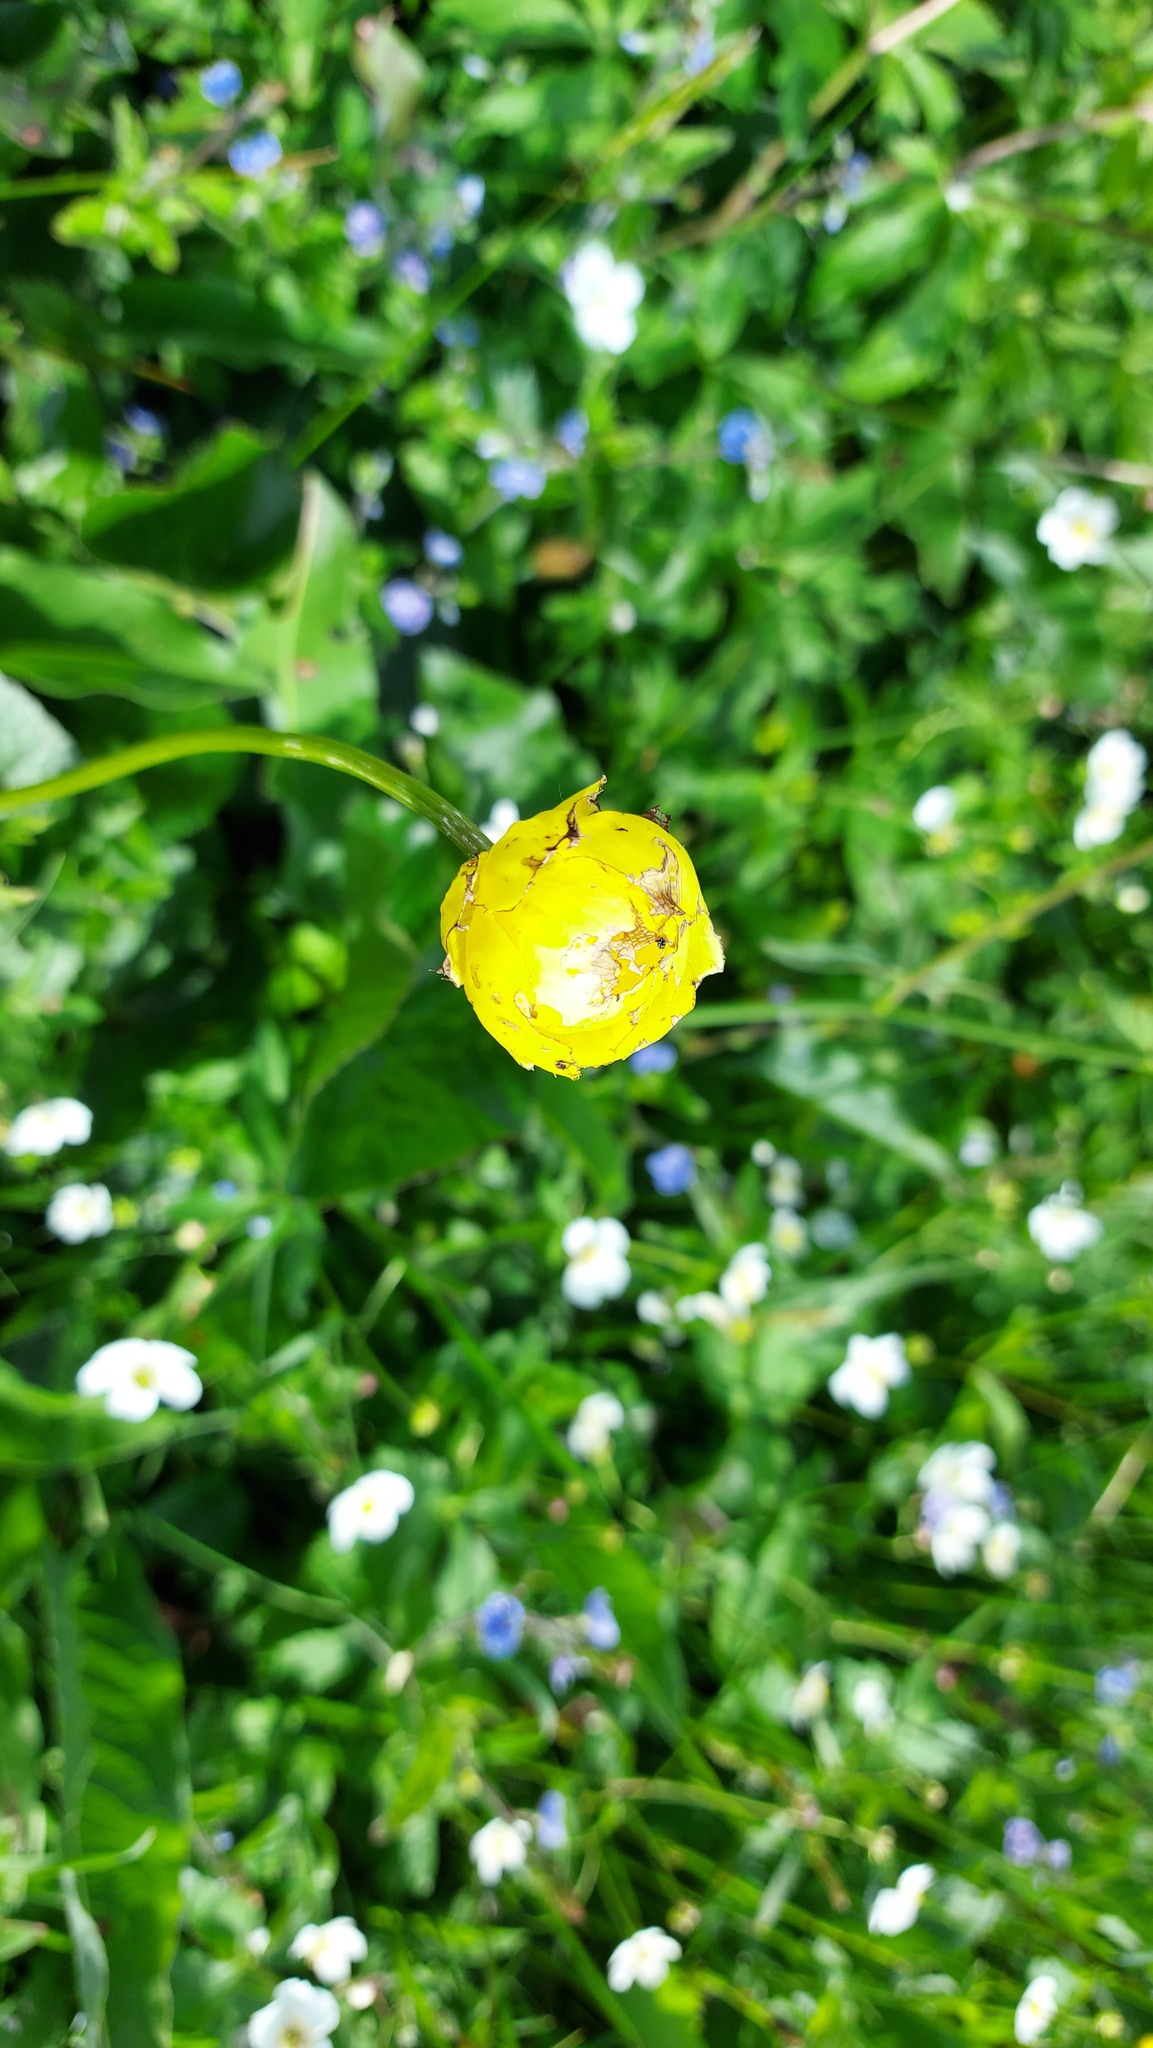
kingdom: Plantae
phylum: Tracheophyta
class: Magnoliopsida
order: Ranunculales
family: Ranunculaceae
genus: Trollius
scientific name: Trollius europaeus
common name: European globeflower
